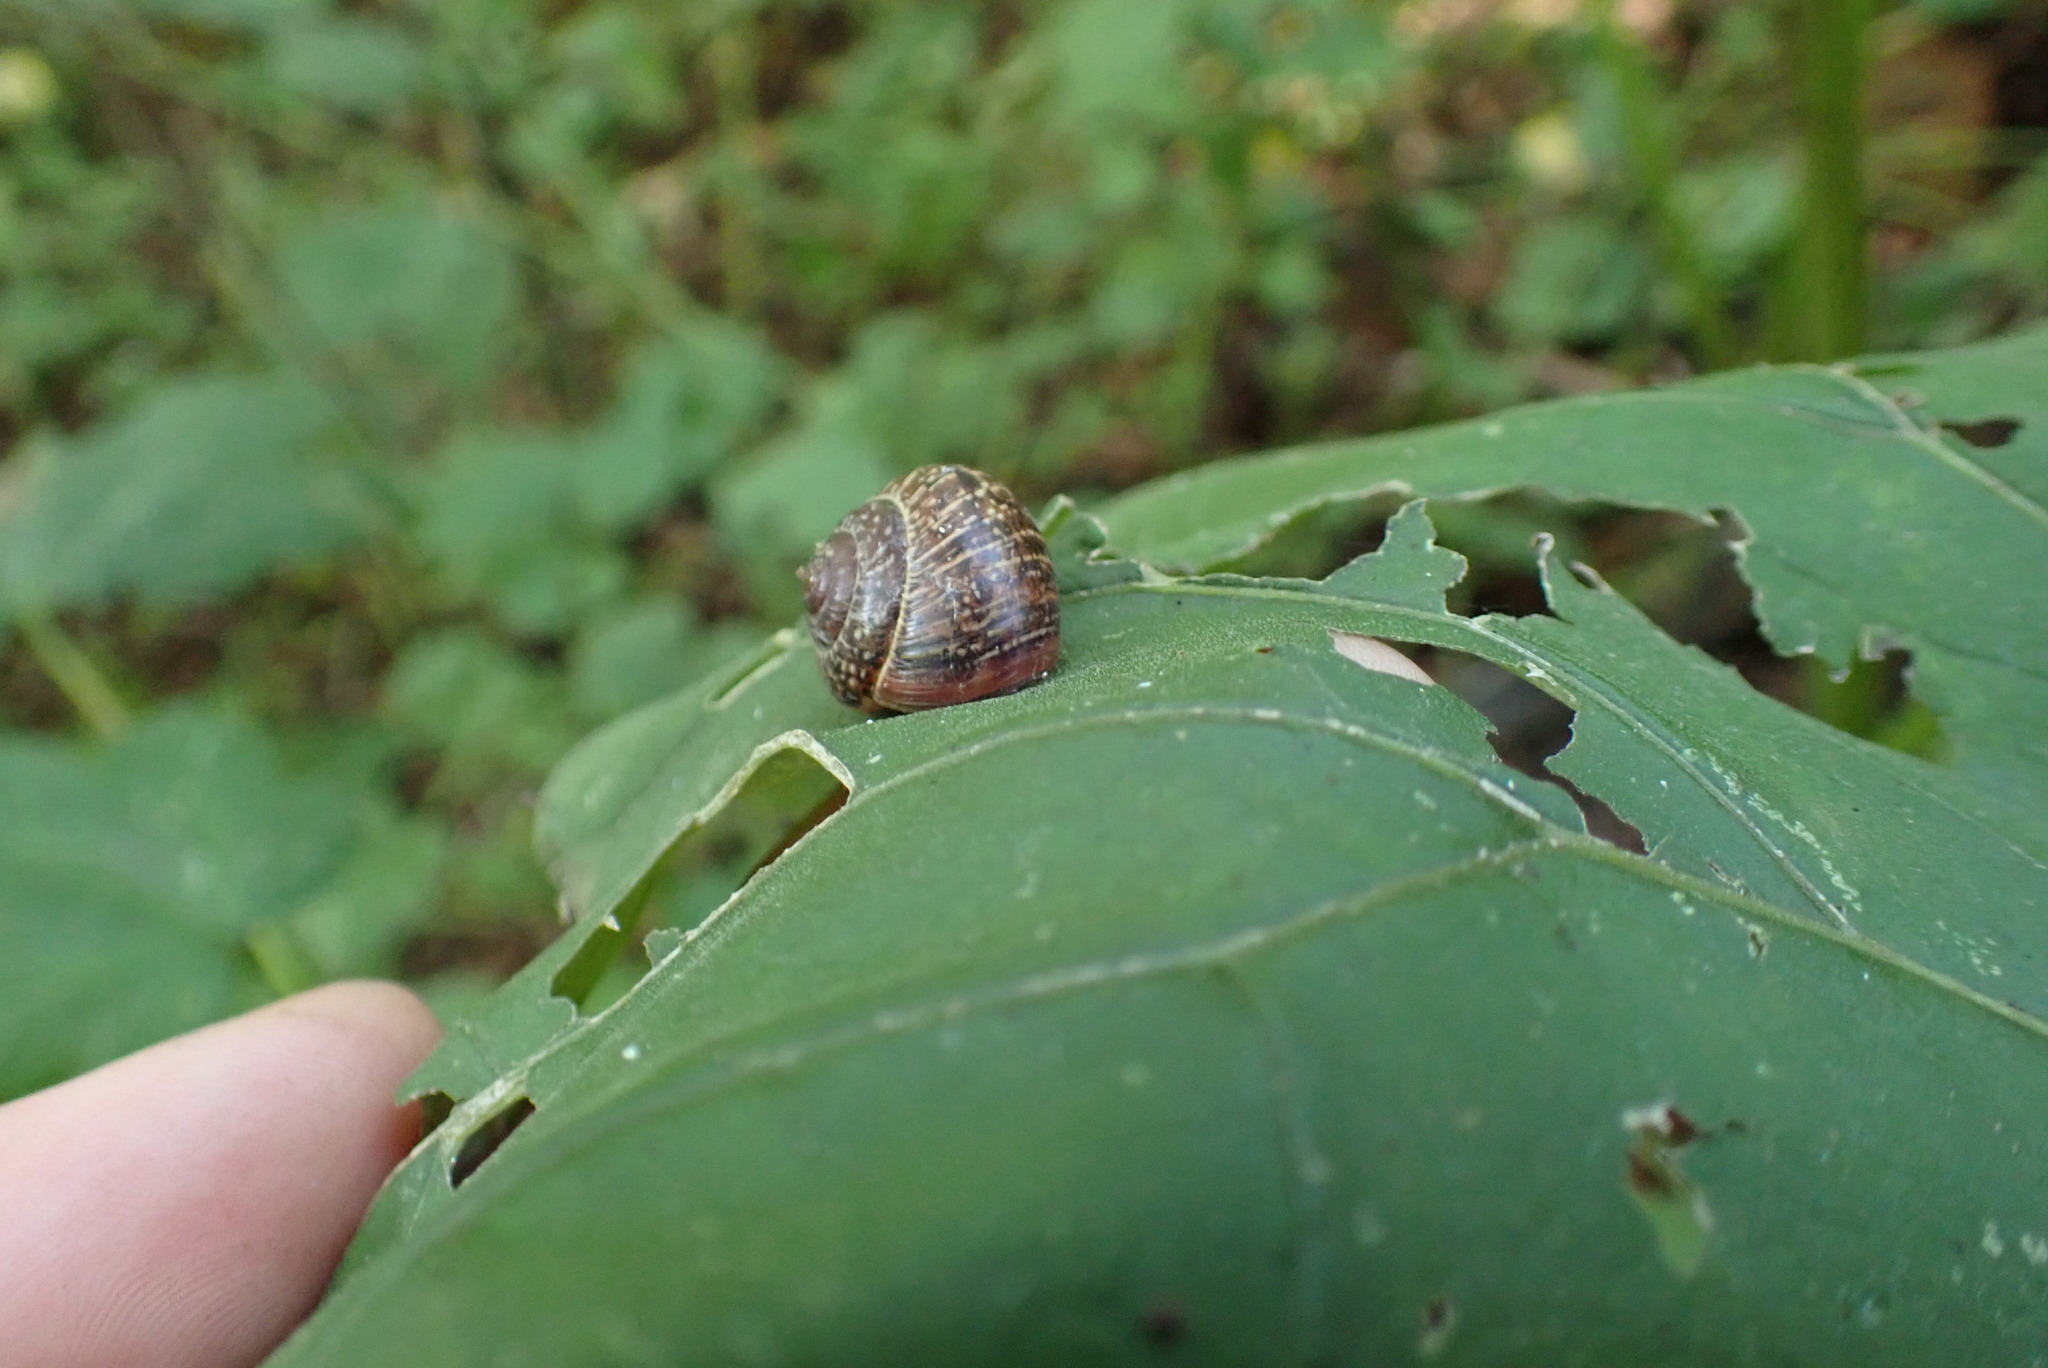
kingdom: Animalia
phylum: Mollusca
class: Gastropoda
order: Stylommatophora
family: Helicidae
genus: Arianta
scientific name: Arianta arbustorum
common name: Copse snail
